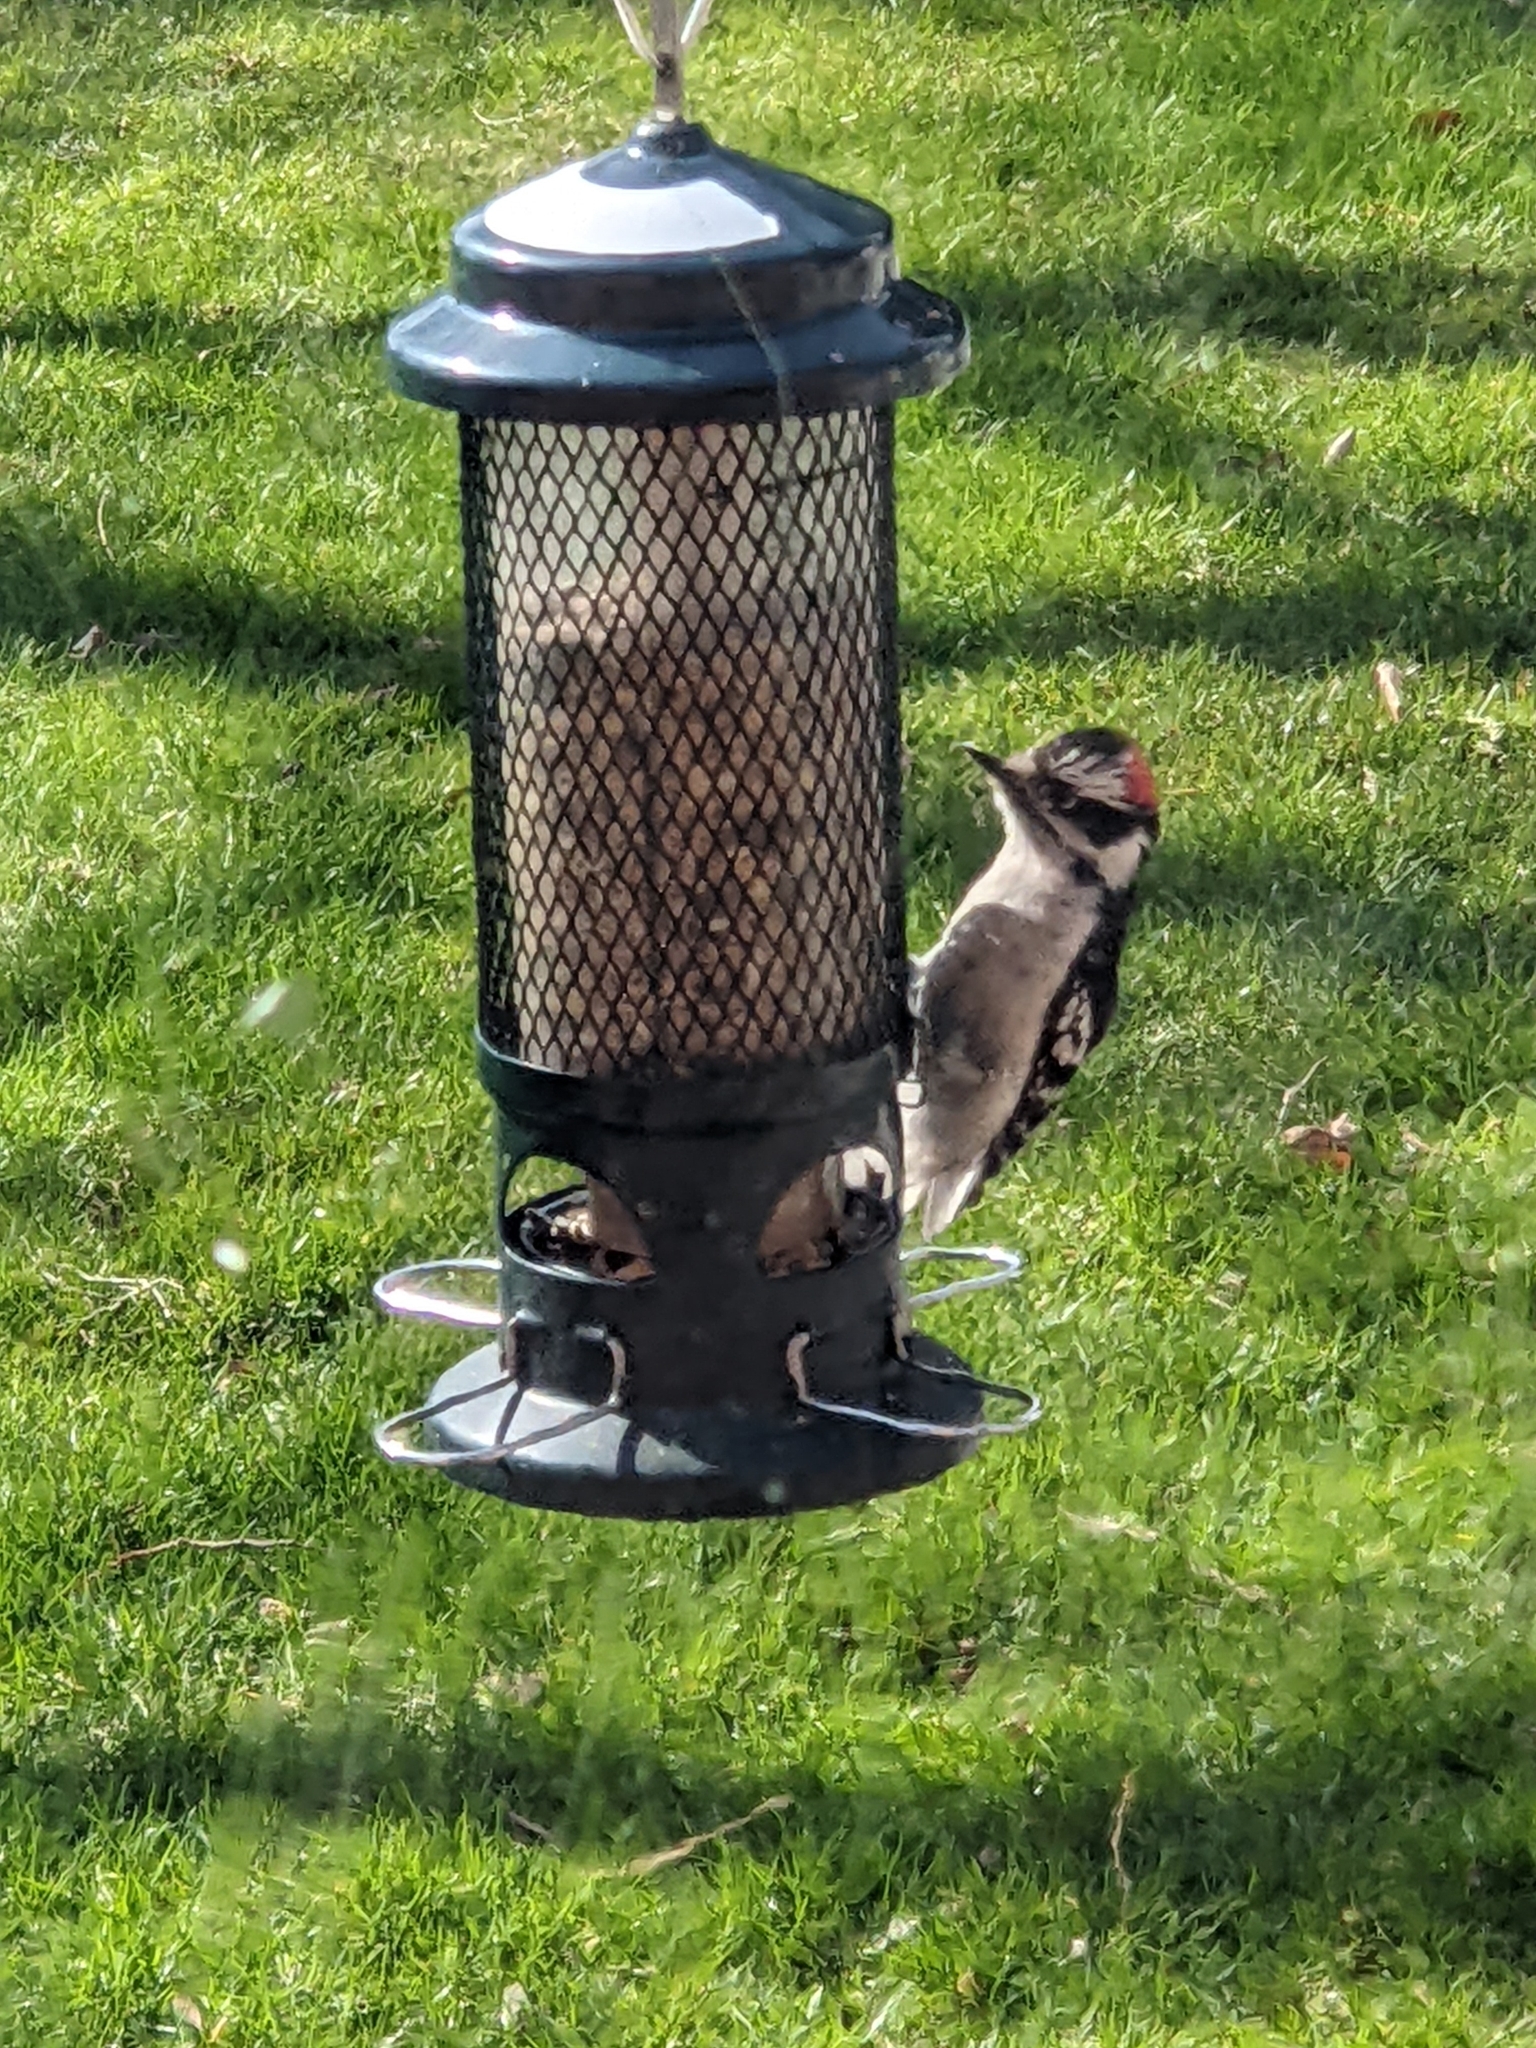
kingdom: Animalia
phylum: Chordata
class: Aves
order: Piciformes
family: Picidae
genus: Dryobates
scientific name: Dryobates pubescens
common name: Downy woodpecker
